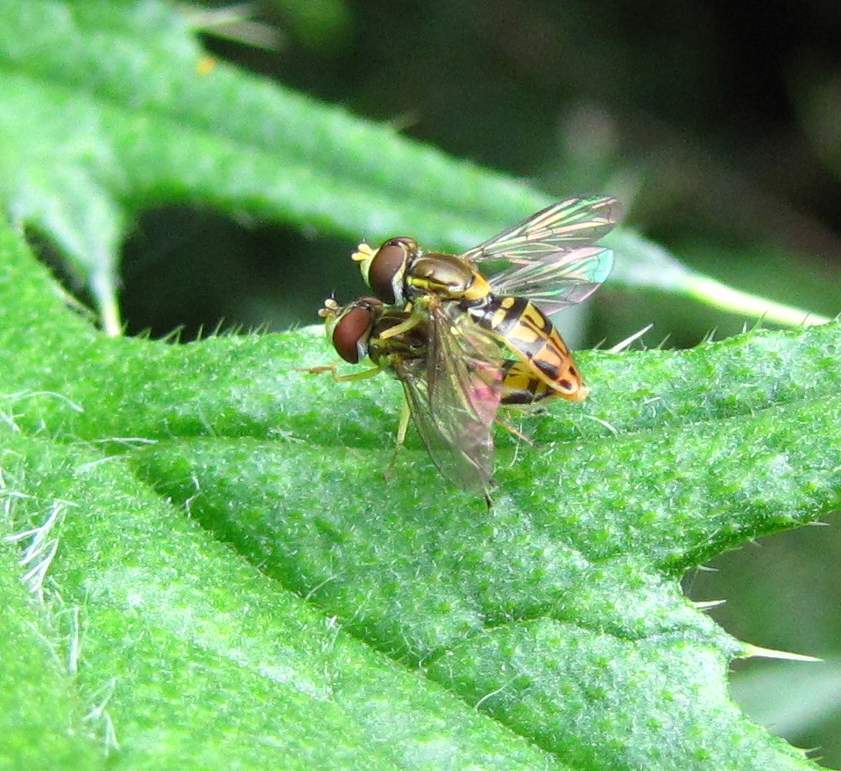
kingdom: Animalia
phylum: Arthropoda
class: Insecta
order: Diptera
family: Syrphidae
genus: Toxomerus
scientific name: Toxomerus marginatus
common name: Syrphid fly
